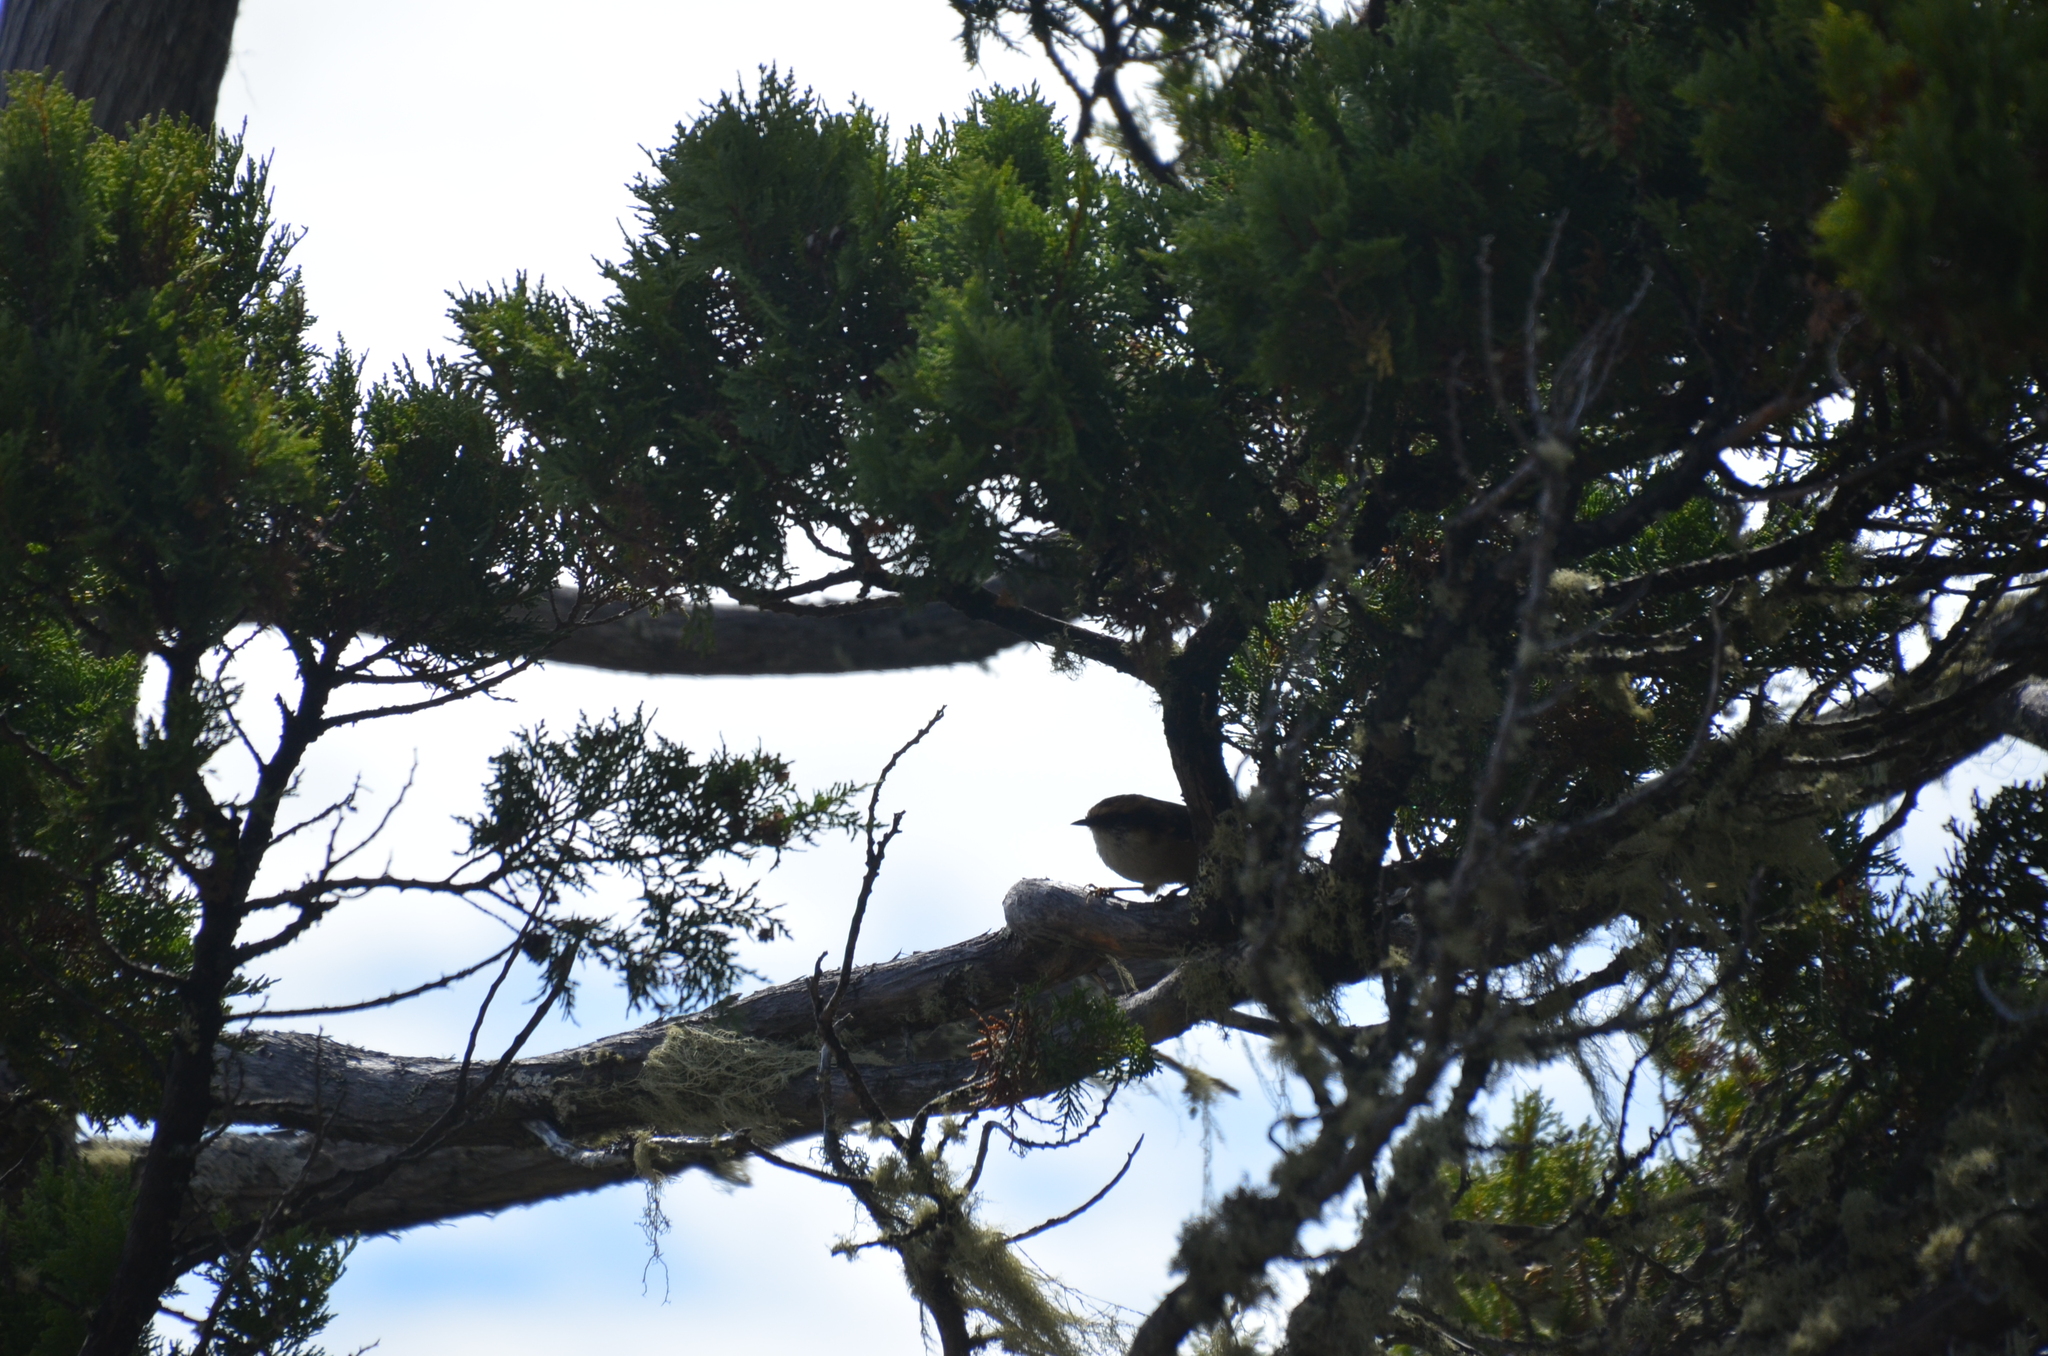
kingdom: Animalia
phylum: Chordata
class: Aves
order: Passeriformes
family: Furnariidae
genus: Aphrastura
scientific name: Aphrastura spinicauda
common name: Thorn-tailed rayadito
